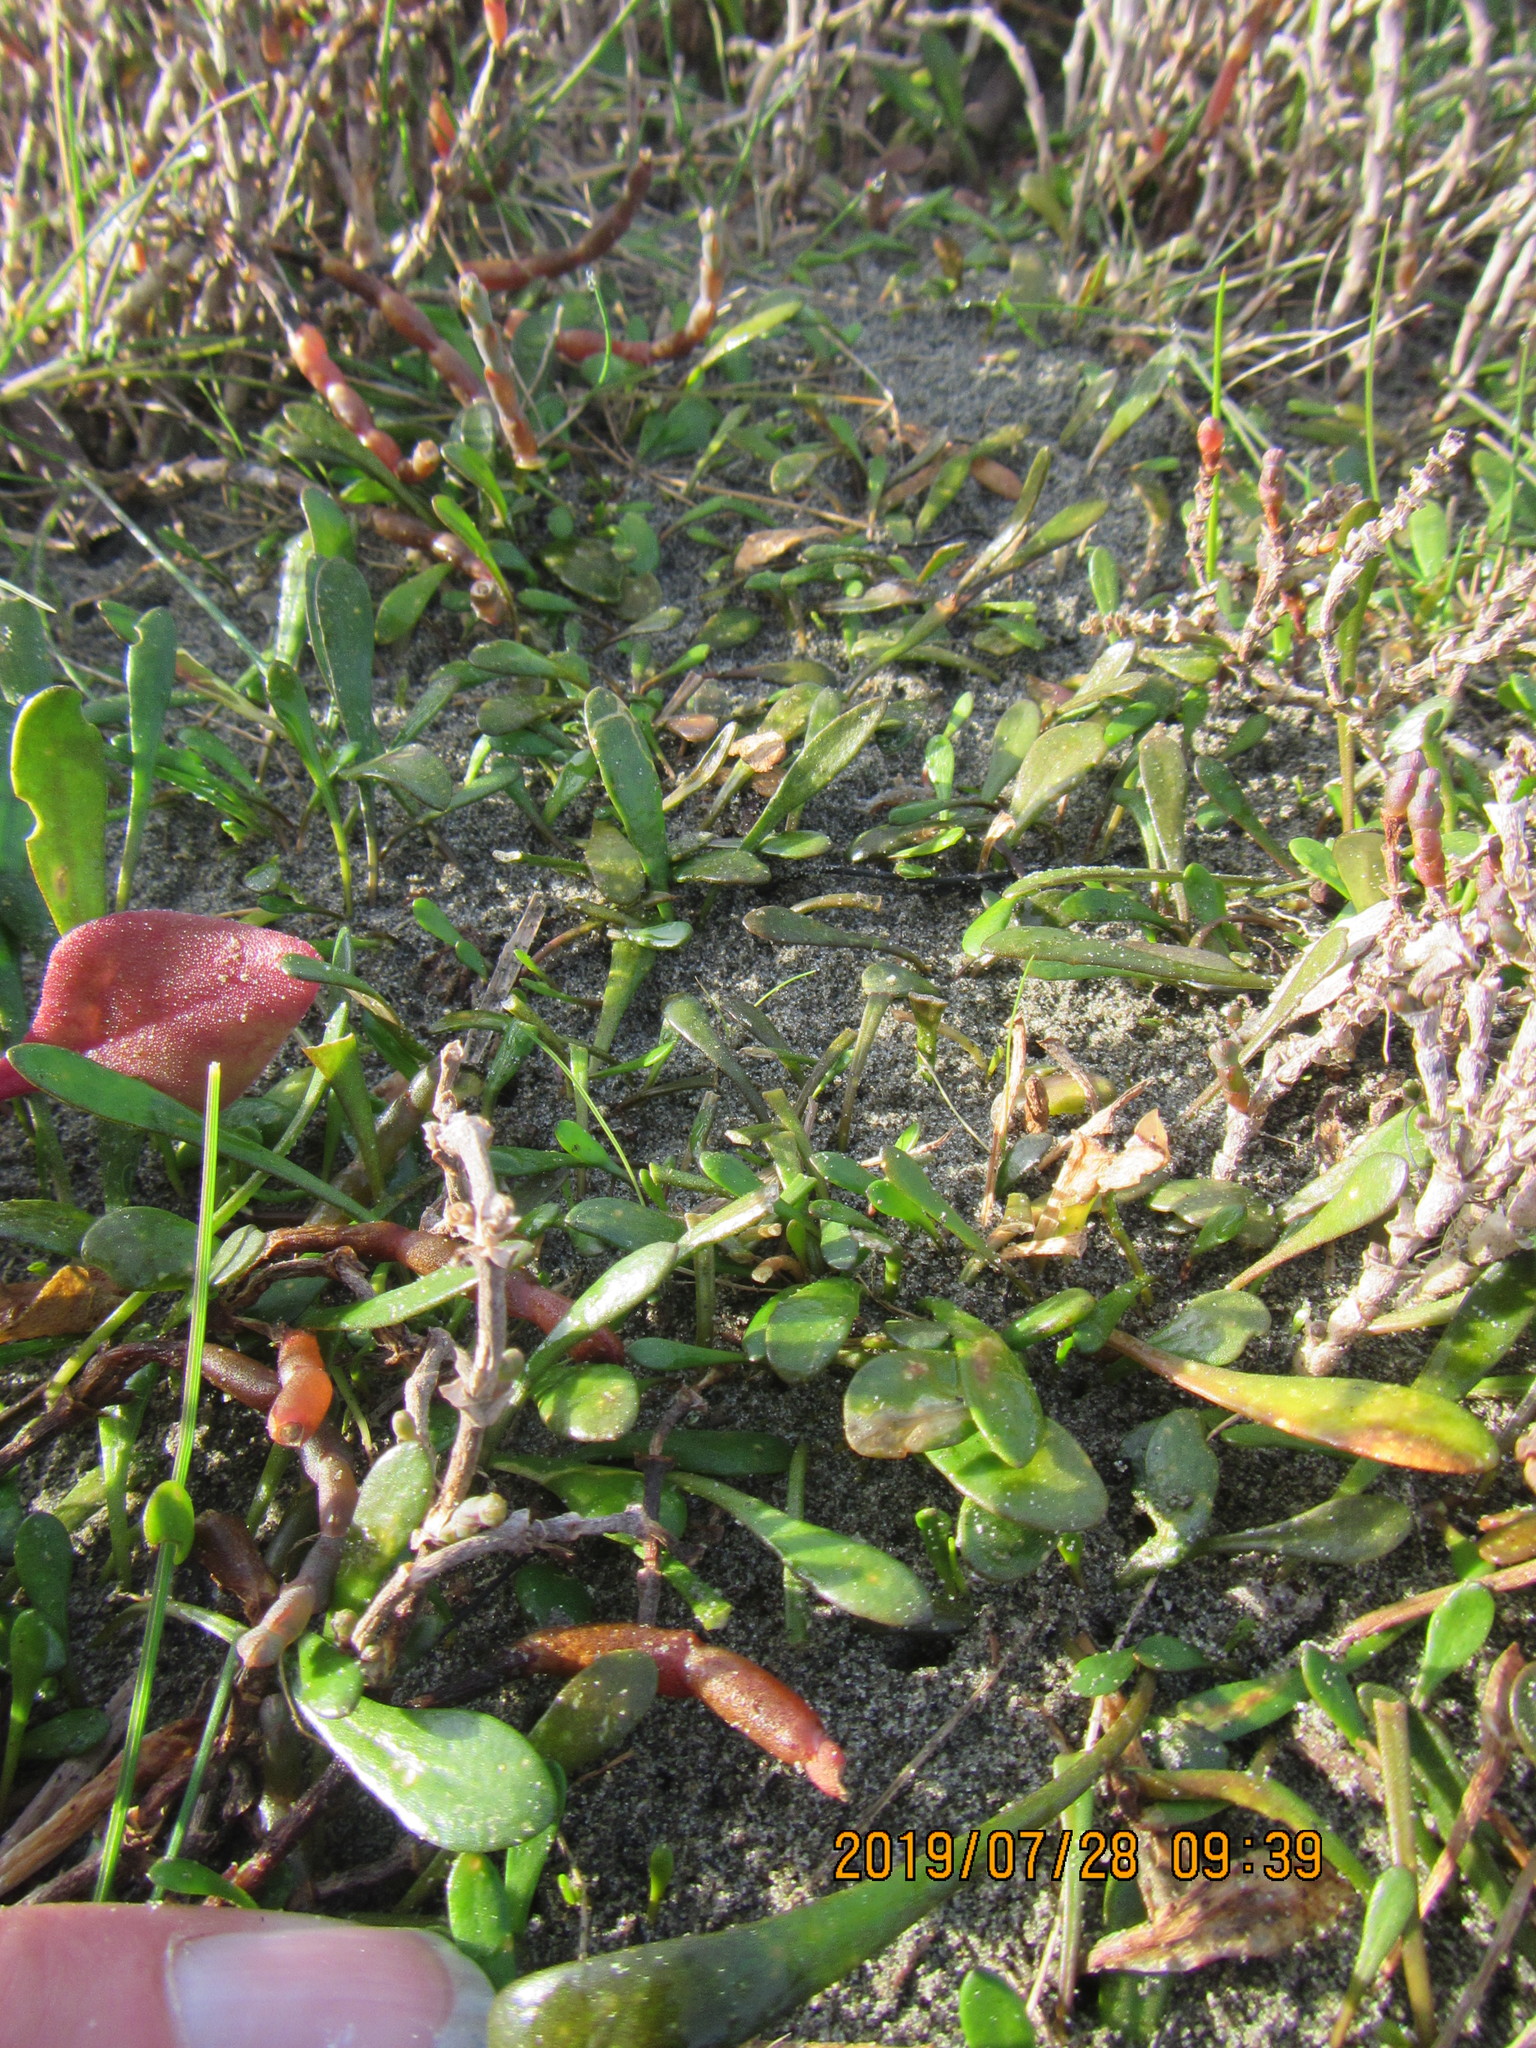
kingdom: Plantae
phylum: Tracheophyta
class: Magnoliopsida
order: Asterales
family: Goodeniaceae
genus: Goodenia
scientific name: Goodenia radicans
